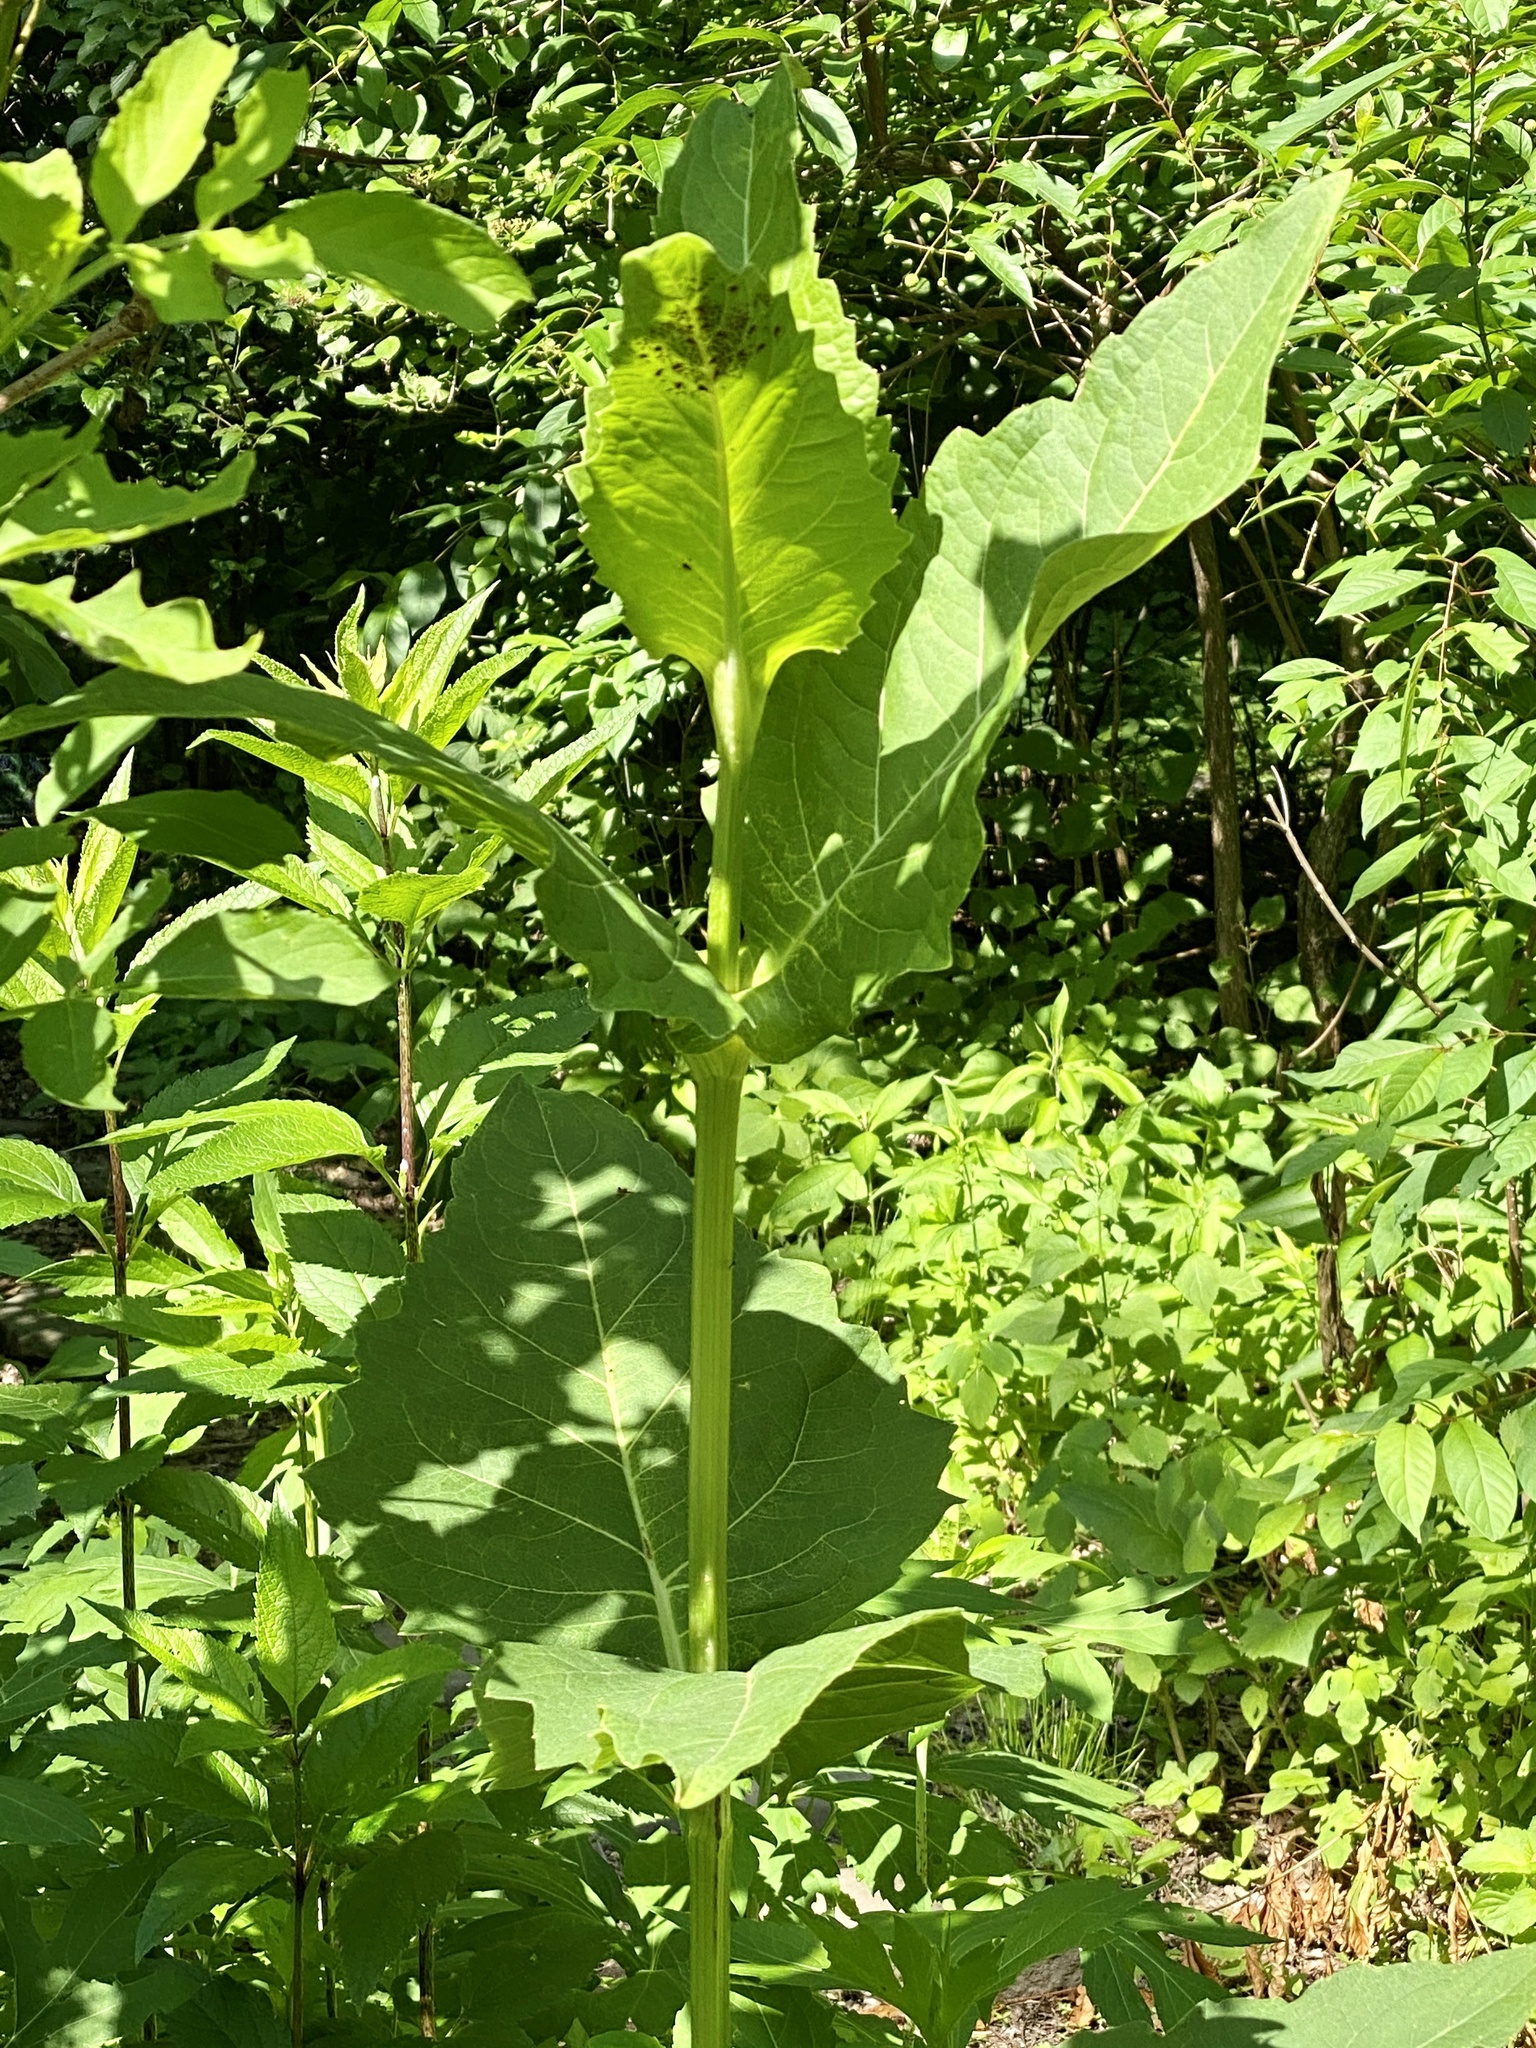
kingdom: Plantae
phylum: Tracheophyta
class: Magnoliopsida
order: Asterales
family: Asteraceae
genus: Silphium
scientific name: Silphium perfoliatum
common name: Cup-plant
